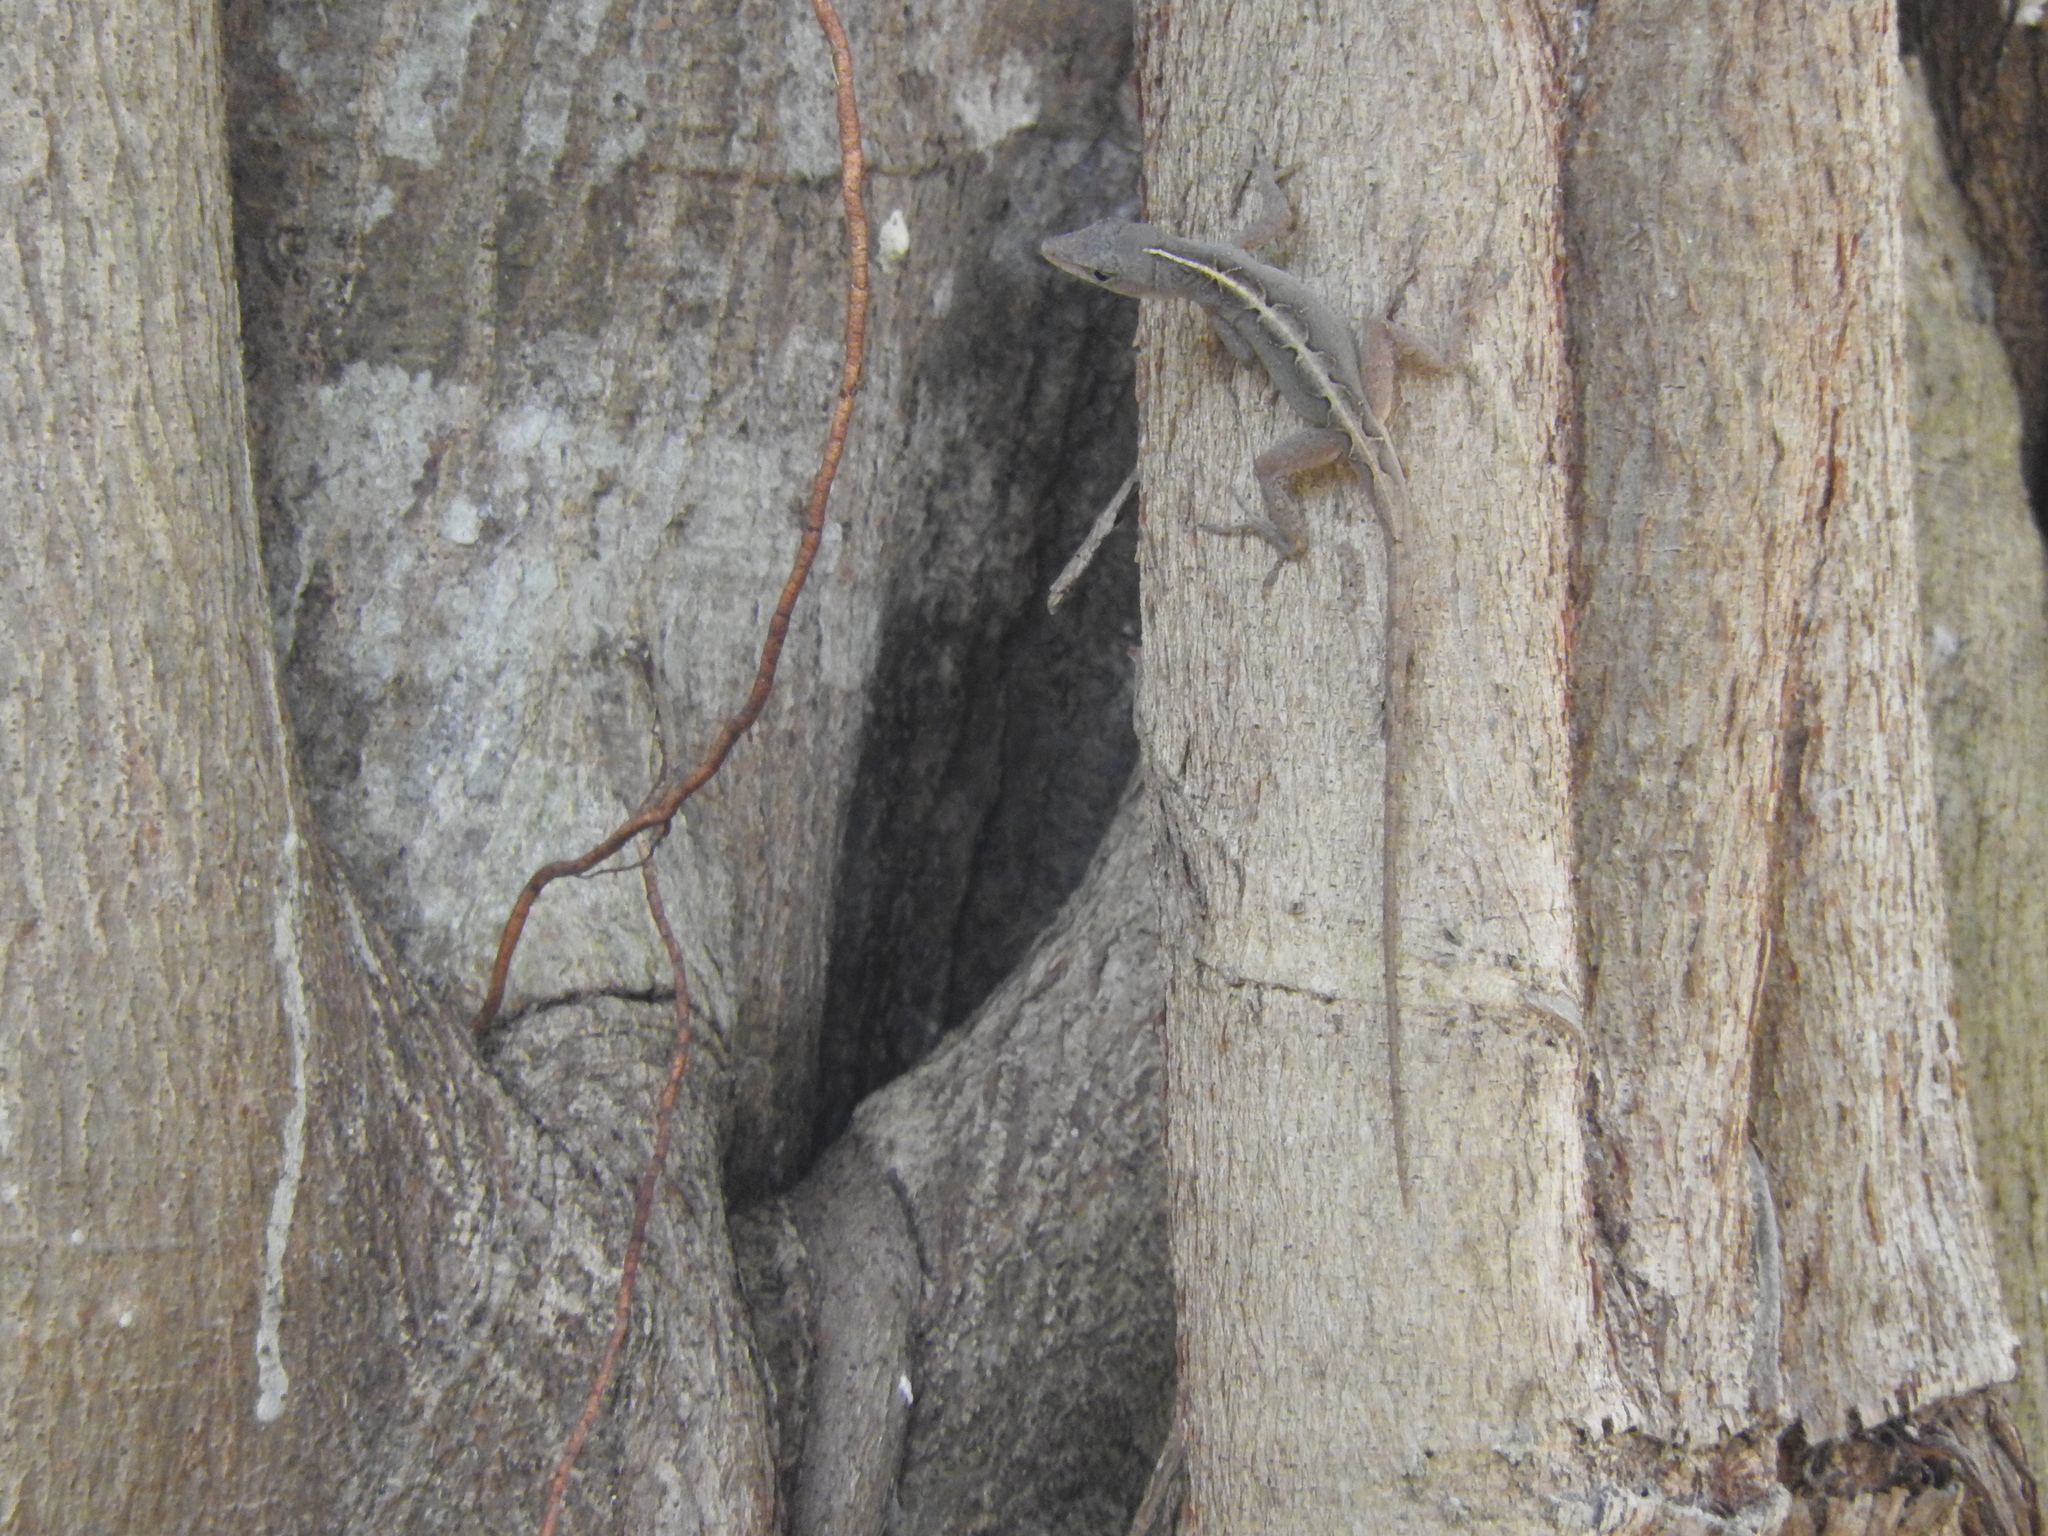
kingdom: Animalia
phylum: Chordata
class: Squamata
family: Dactyloidae
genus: Anolis
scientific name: Anolis sagrei
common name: Brown anole
